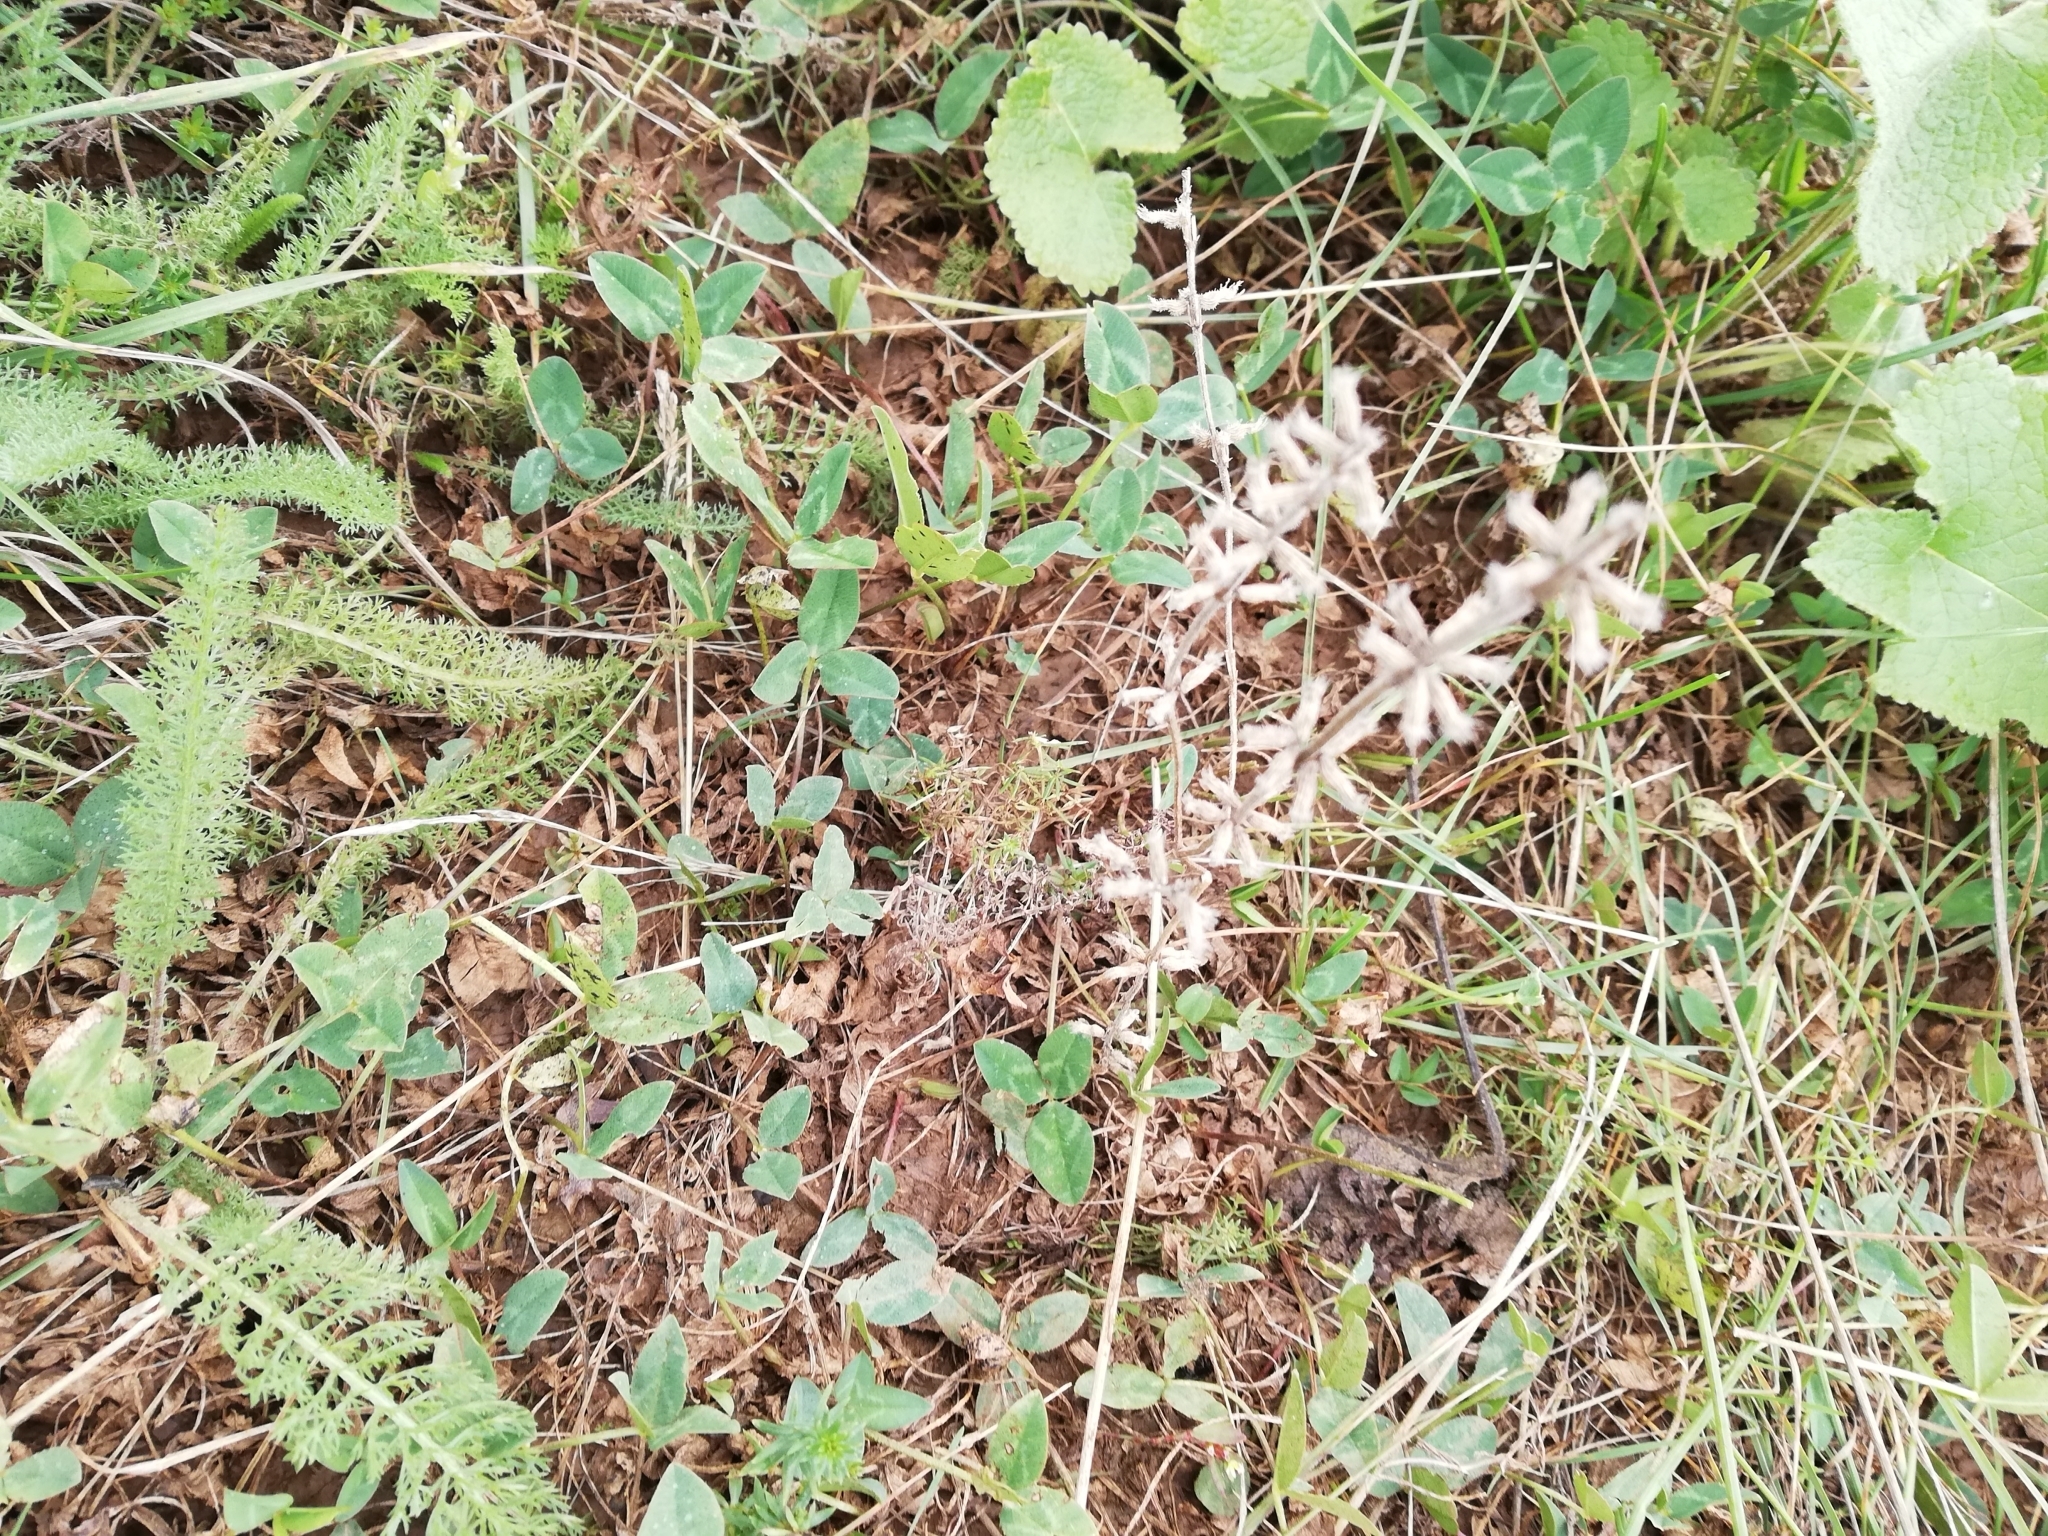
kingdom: Plantae
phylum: Tracheophyta
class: Magnoliopsida
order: Lamiales
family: Lamiaceae
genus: Clinopodium
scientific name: Clinopodium acinos
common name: Basil thyme
